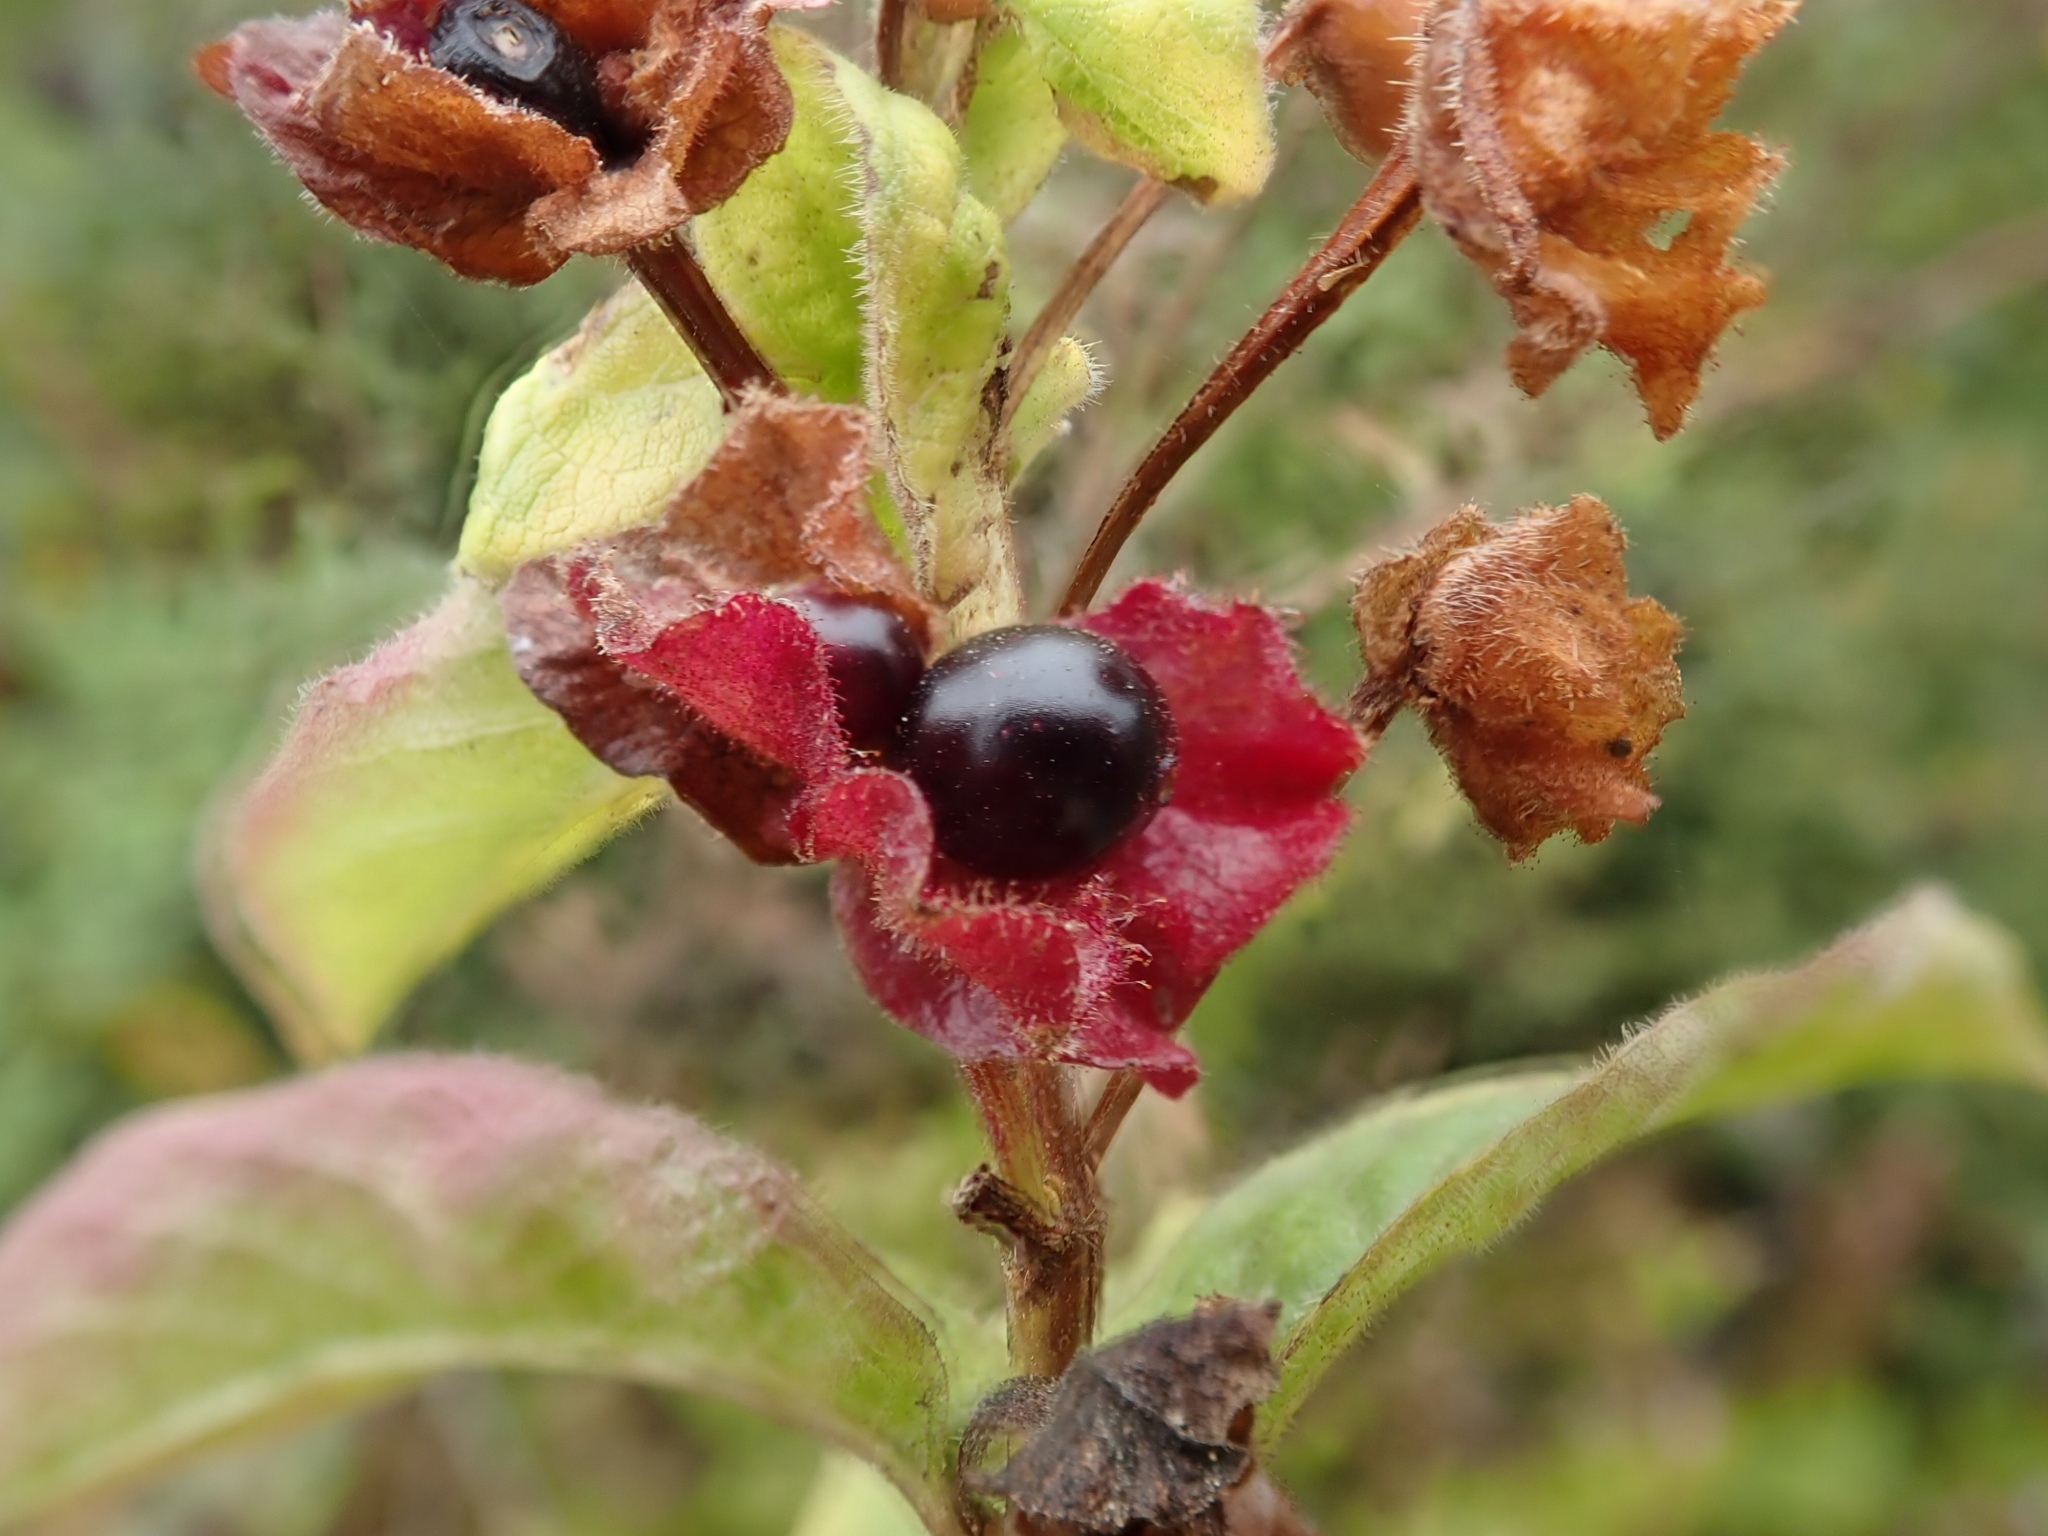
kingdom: Plantae
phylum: Tracheophyta
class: Magnoliopsida
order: Dipsacales
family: Caprifoliaceae
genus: Lonicera
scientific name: Lonicera involucrata
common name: Californian honeysuckle
